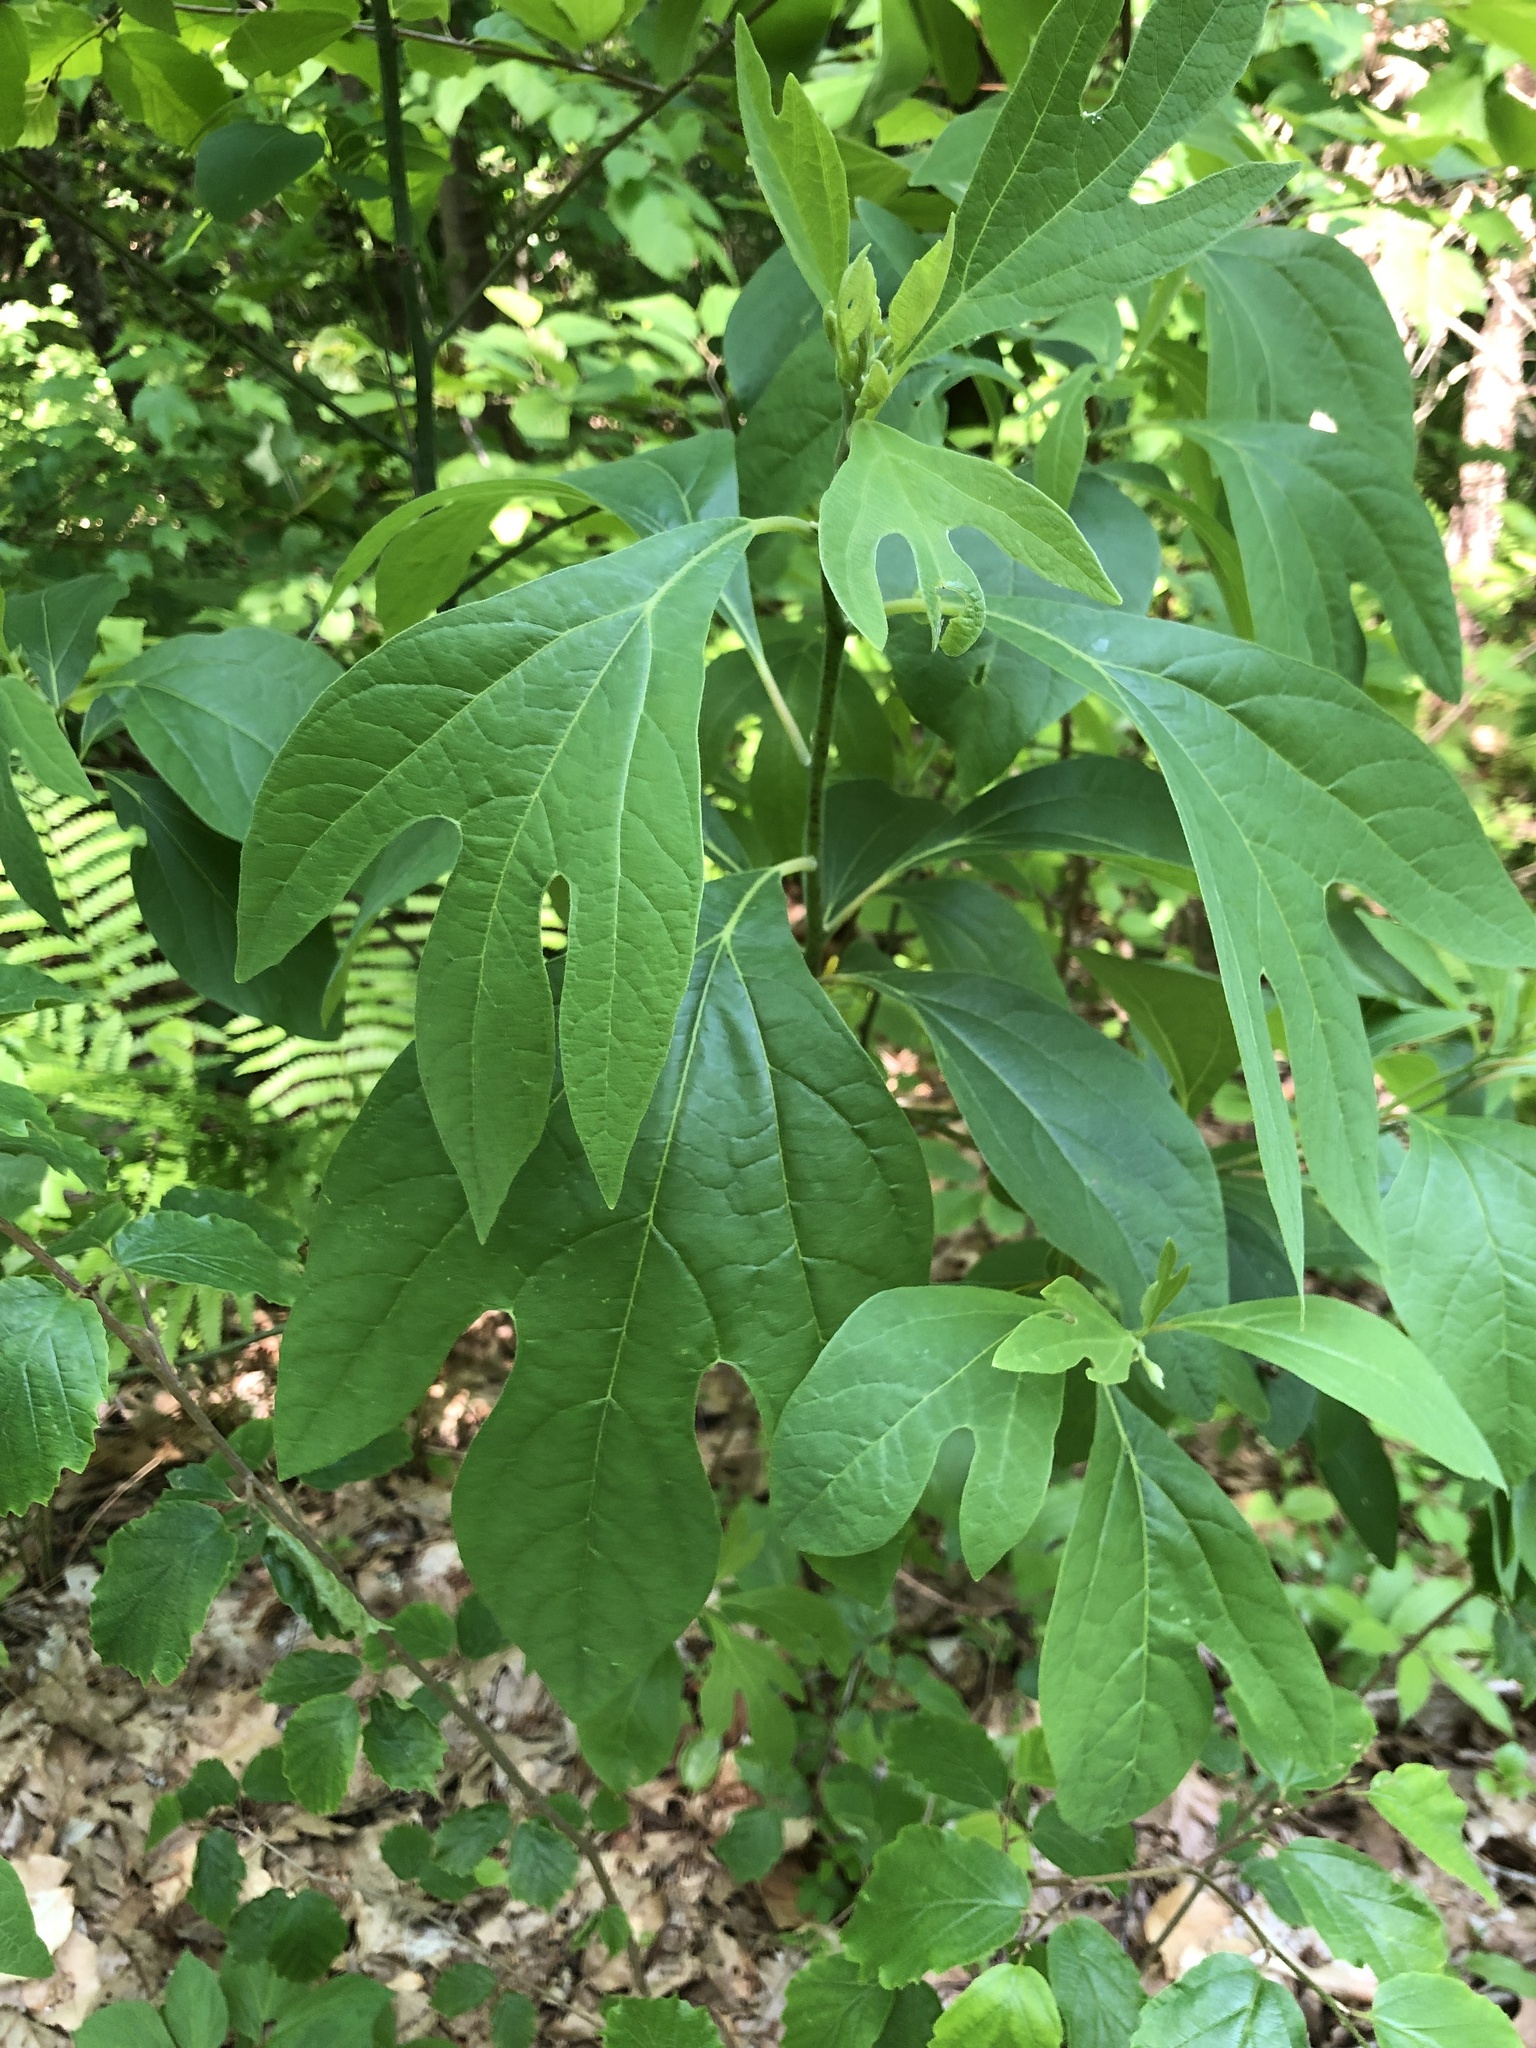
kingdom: Plantae
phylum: Tracheophyta
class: Magnoliopsida
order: Laurales
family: Lauraceae
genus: Sassafras
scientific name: Sassafras albidum
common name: Sassafras
